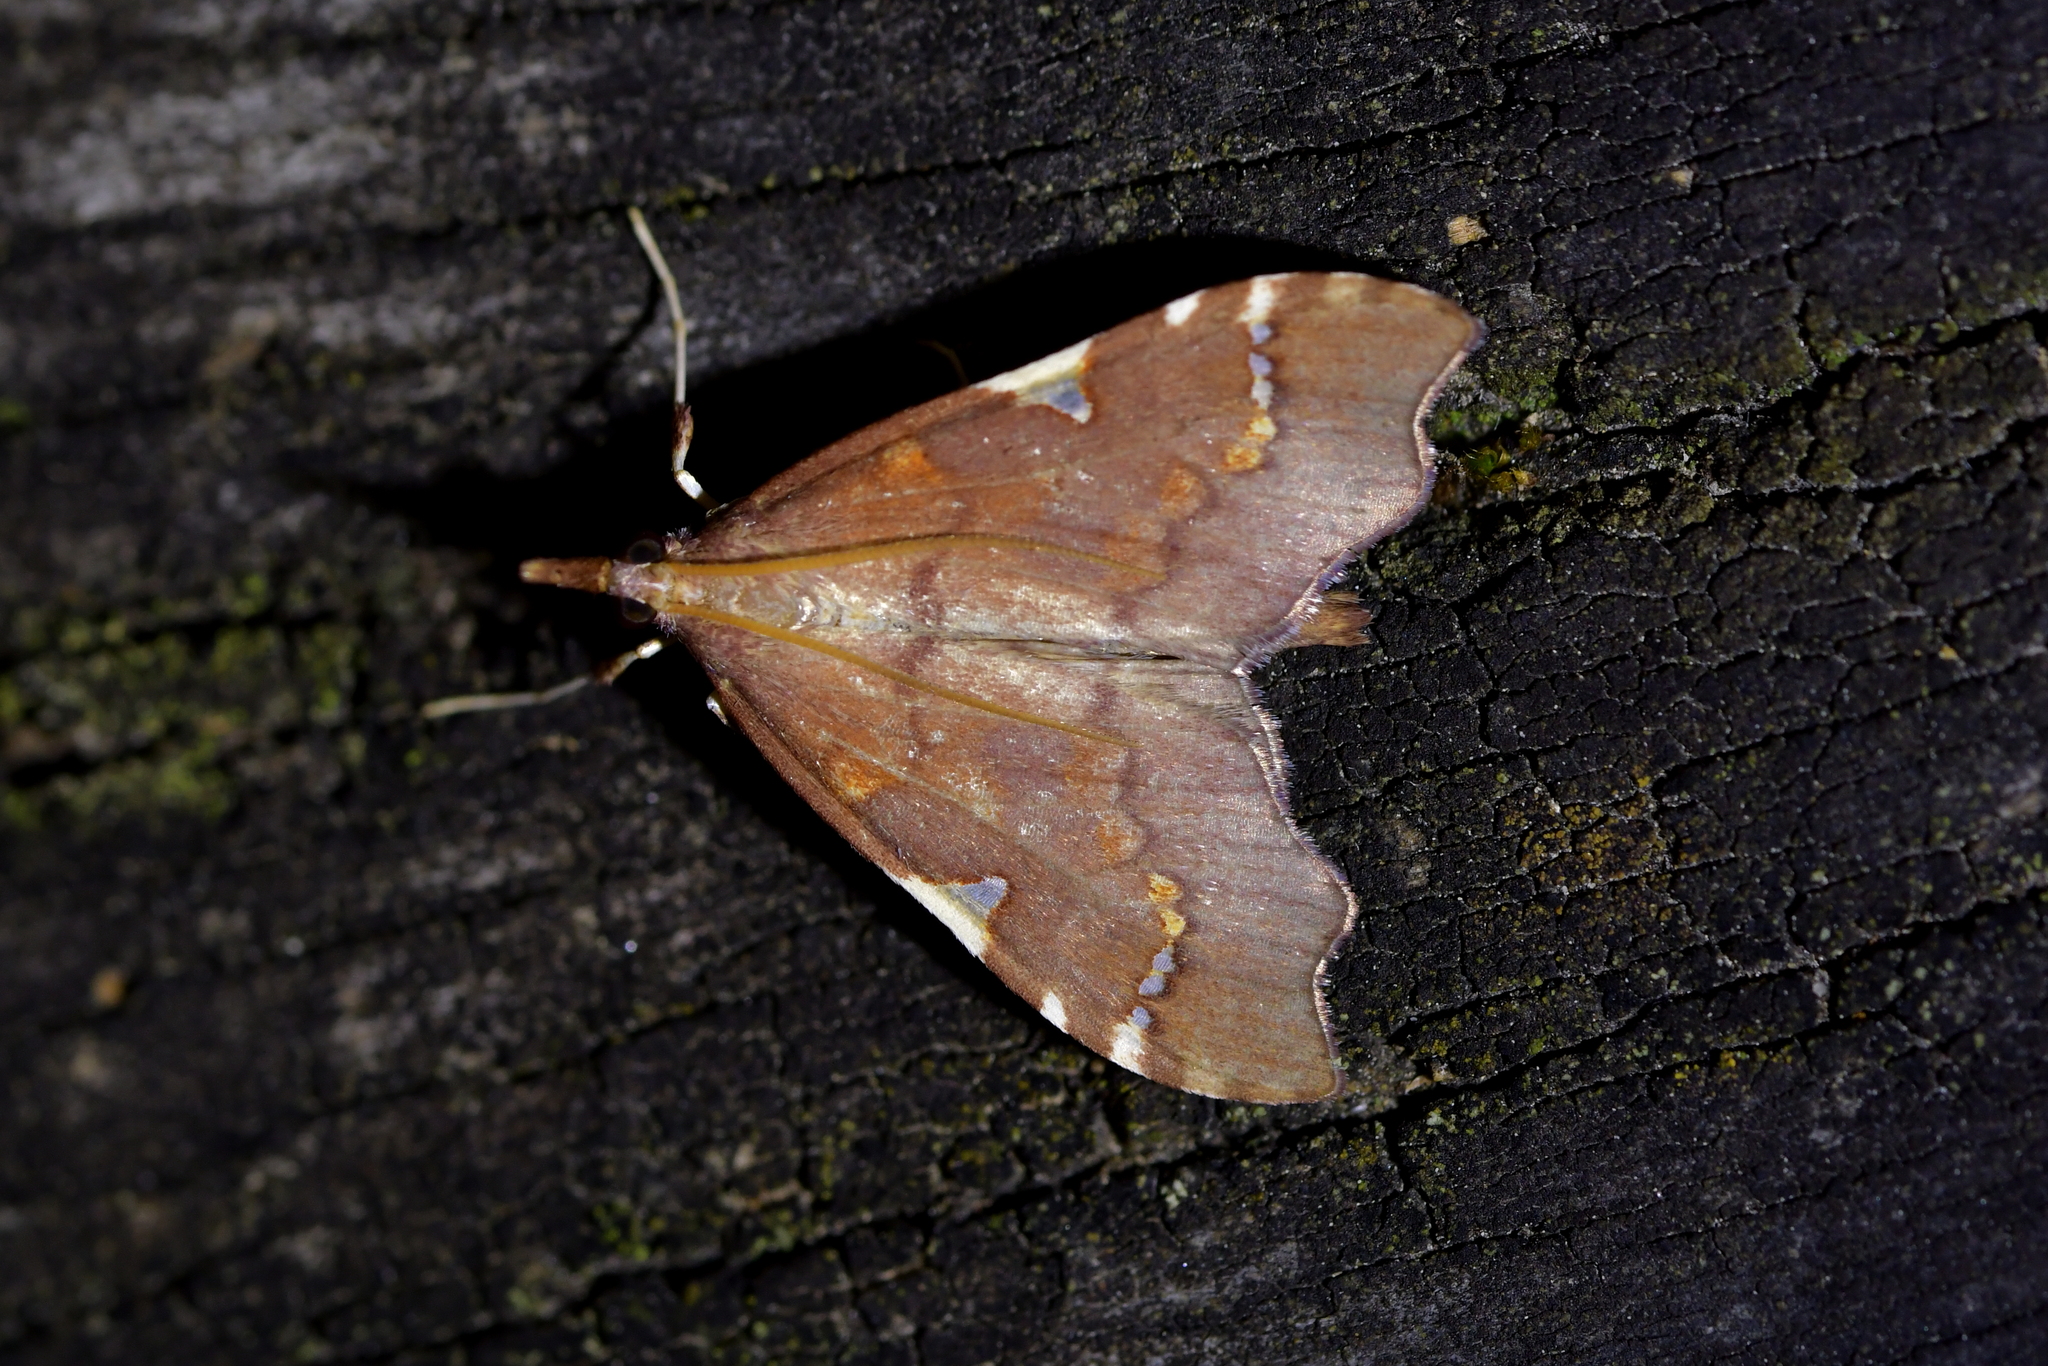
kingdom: Animalia
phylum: Arthropoda
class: Insecta
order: Lepidoptera
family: Crambidae
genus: Deana
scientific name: Deana hybreasalis
